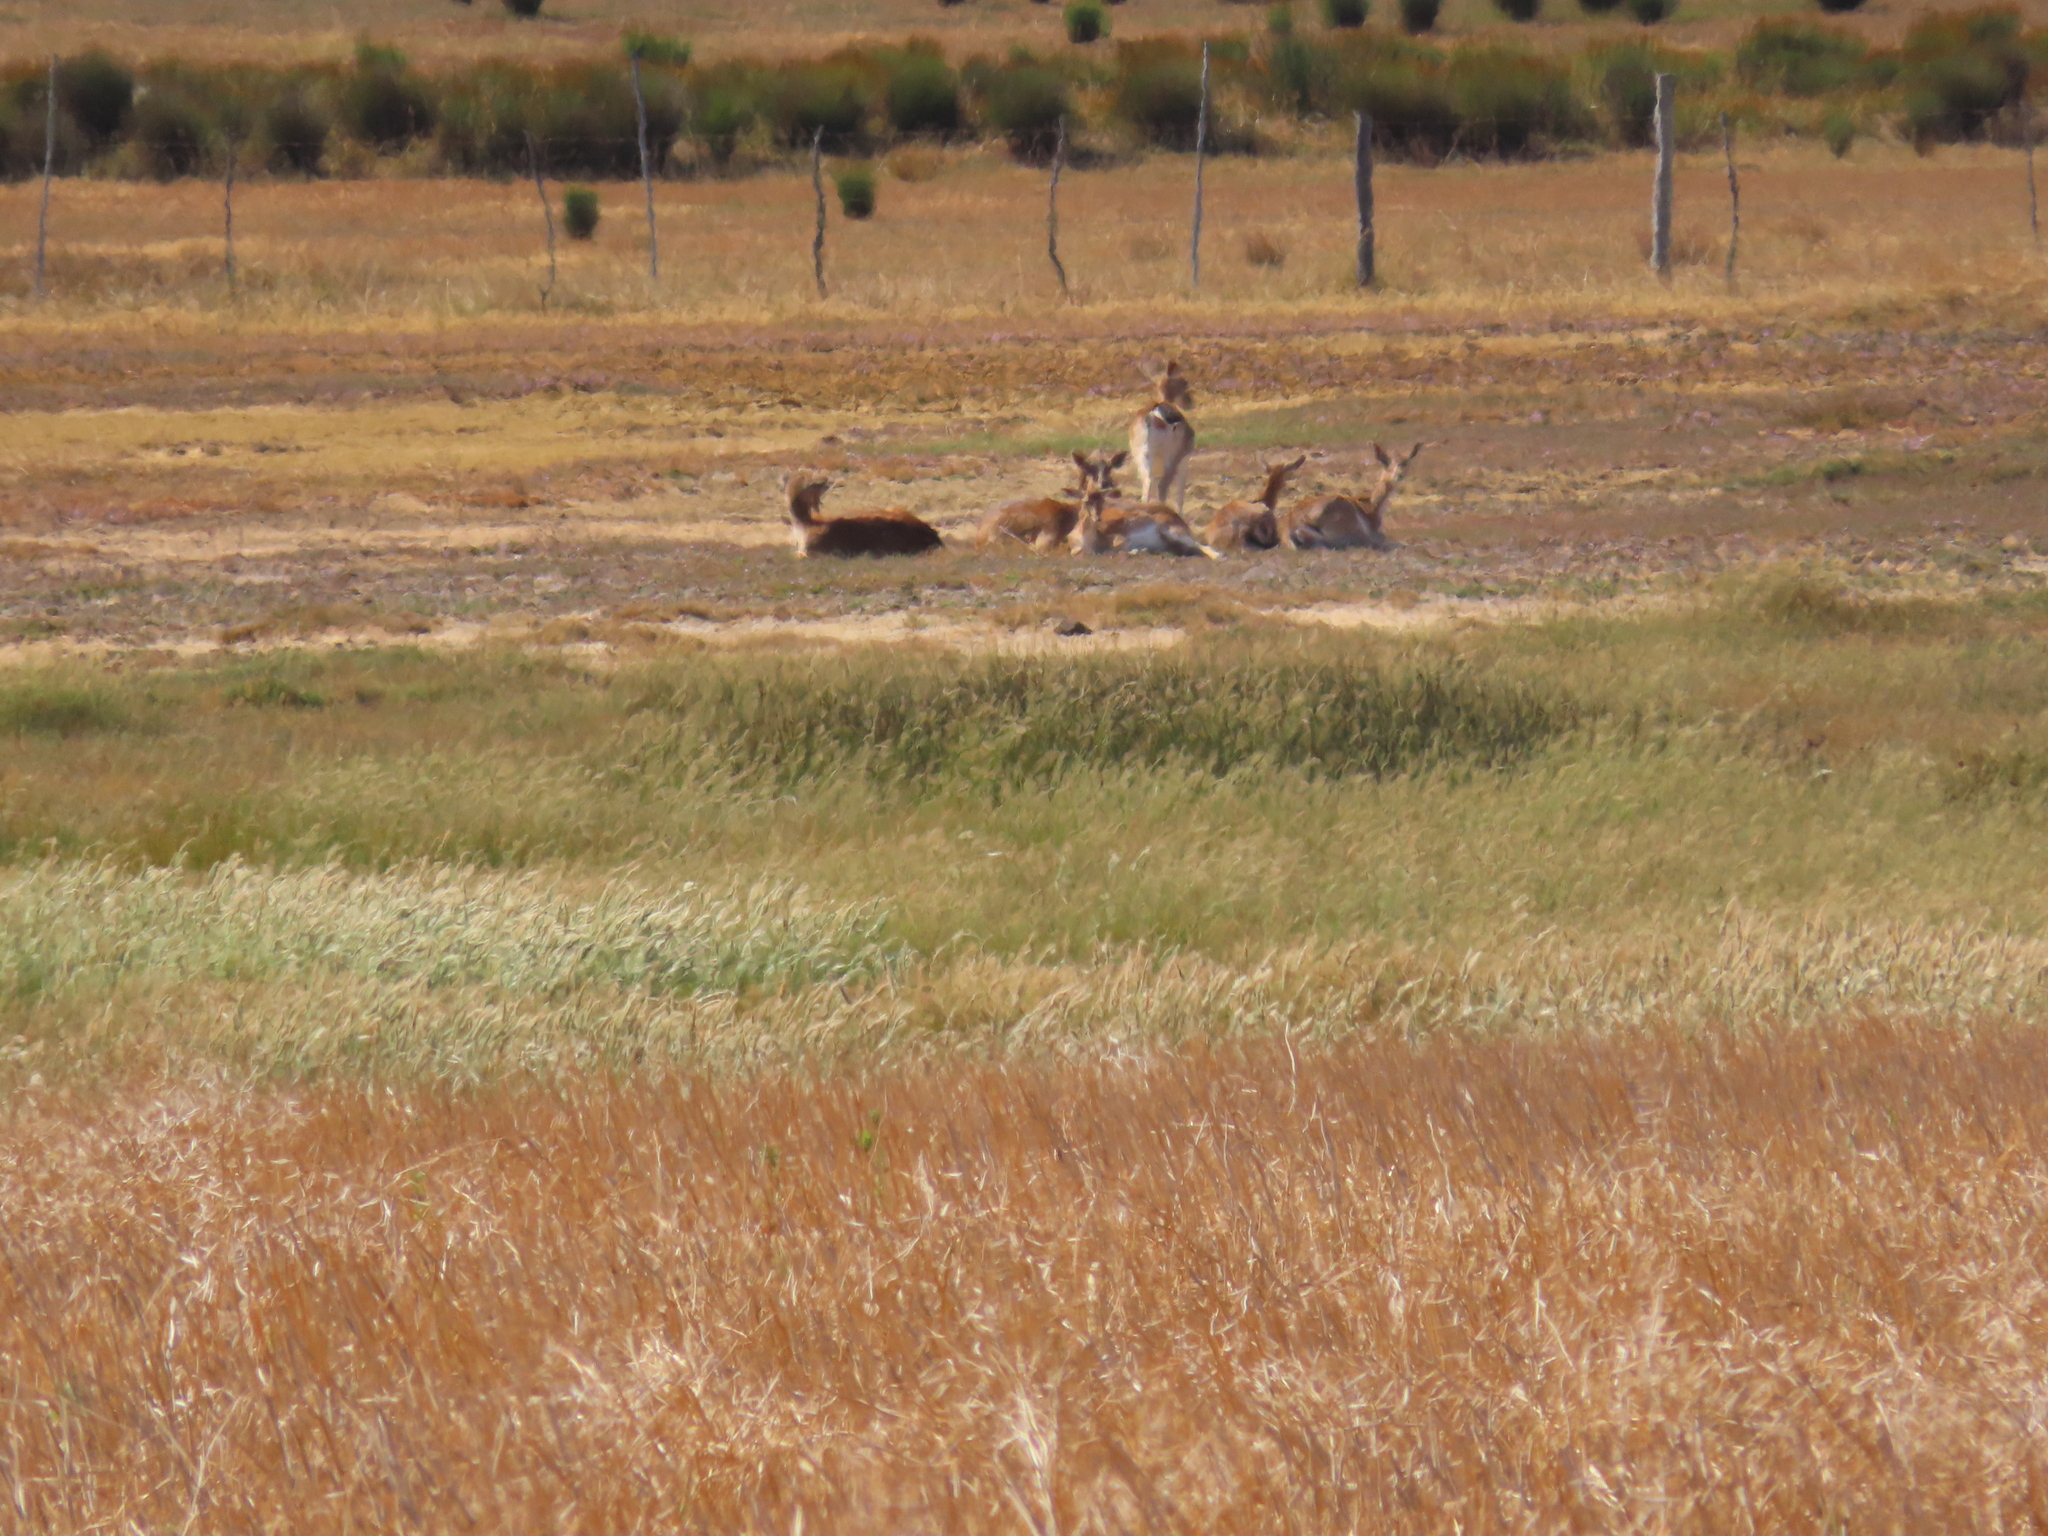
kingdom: Animalia
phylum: Chordata
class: Mammalia
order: Artiodactyla
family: Cervidae
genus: Dama
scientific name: Dama dama
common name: Fallow deer
